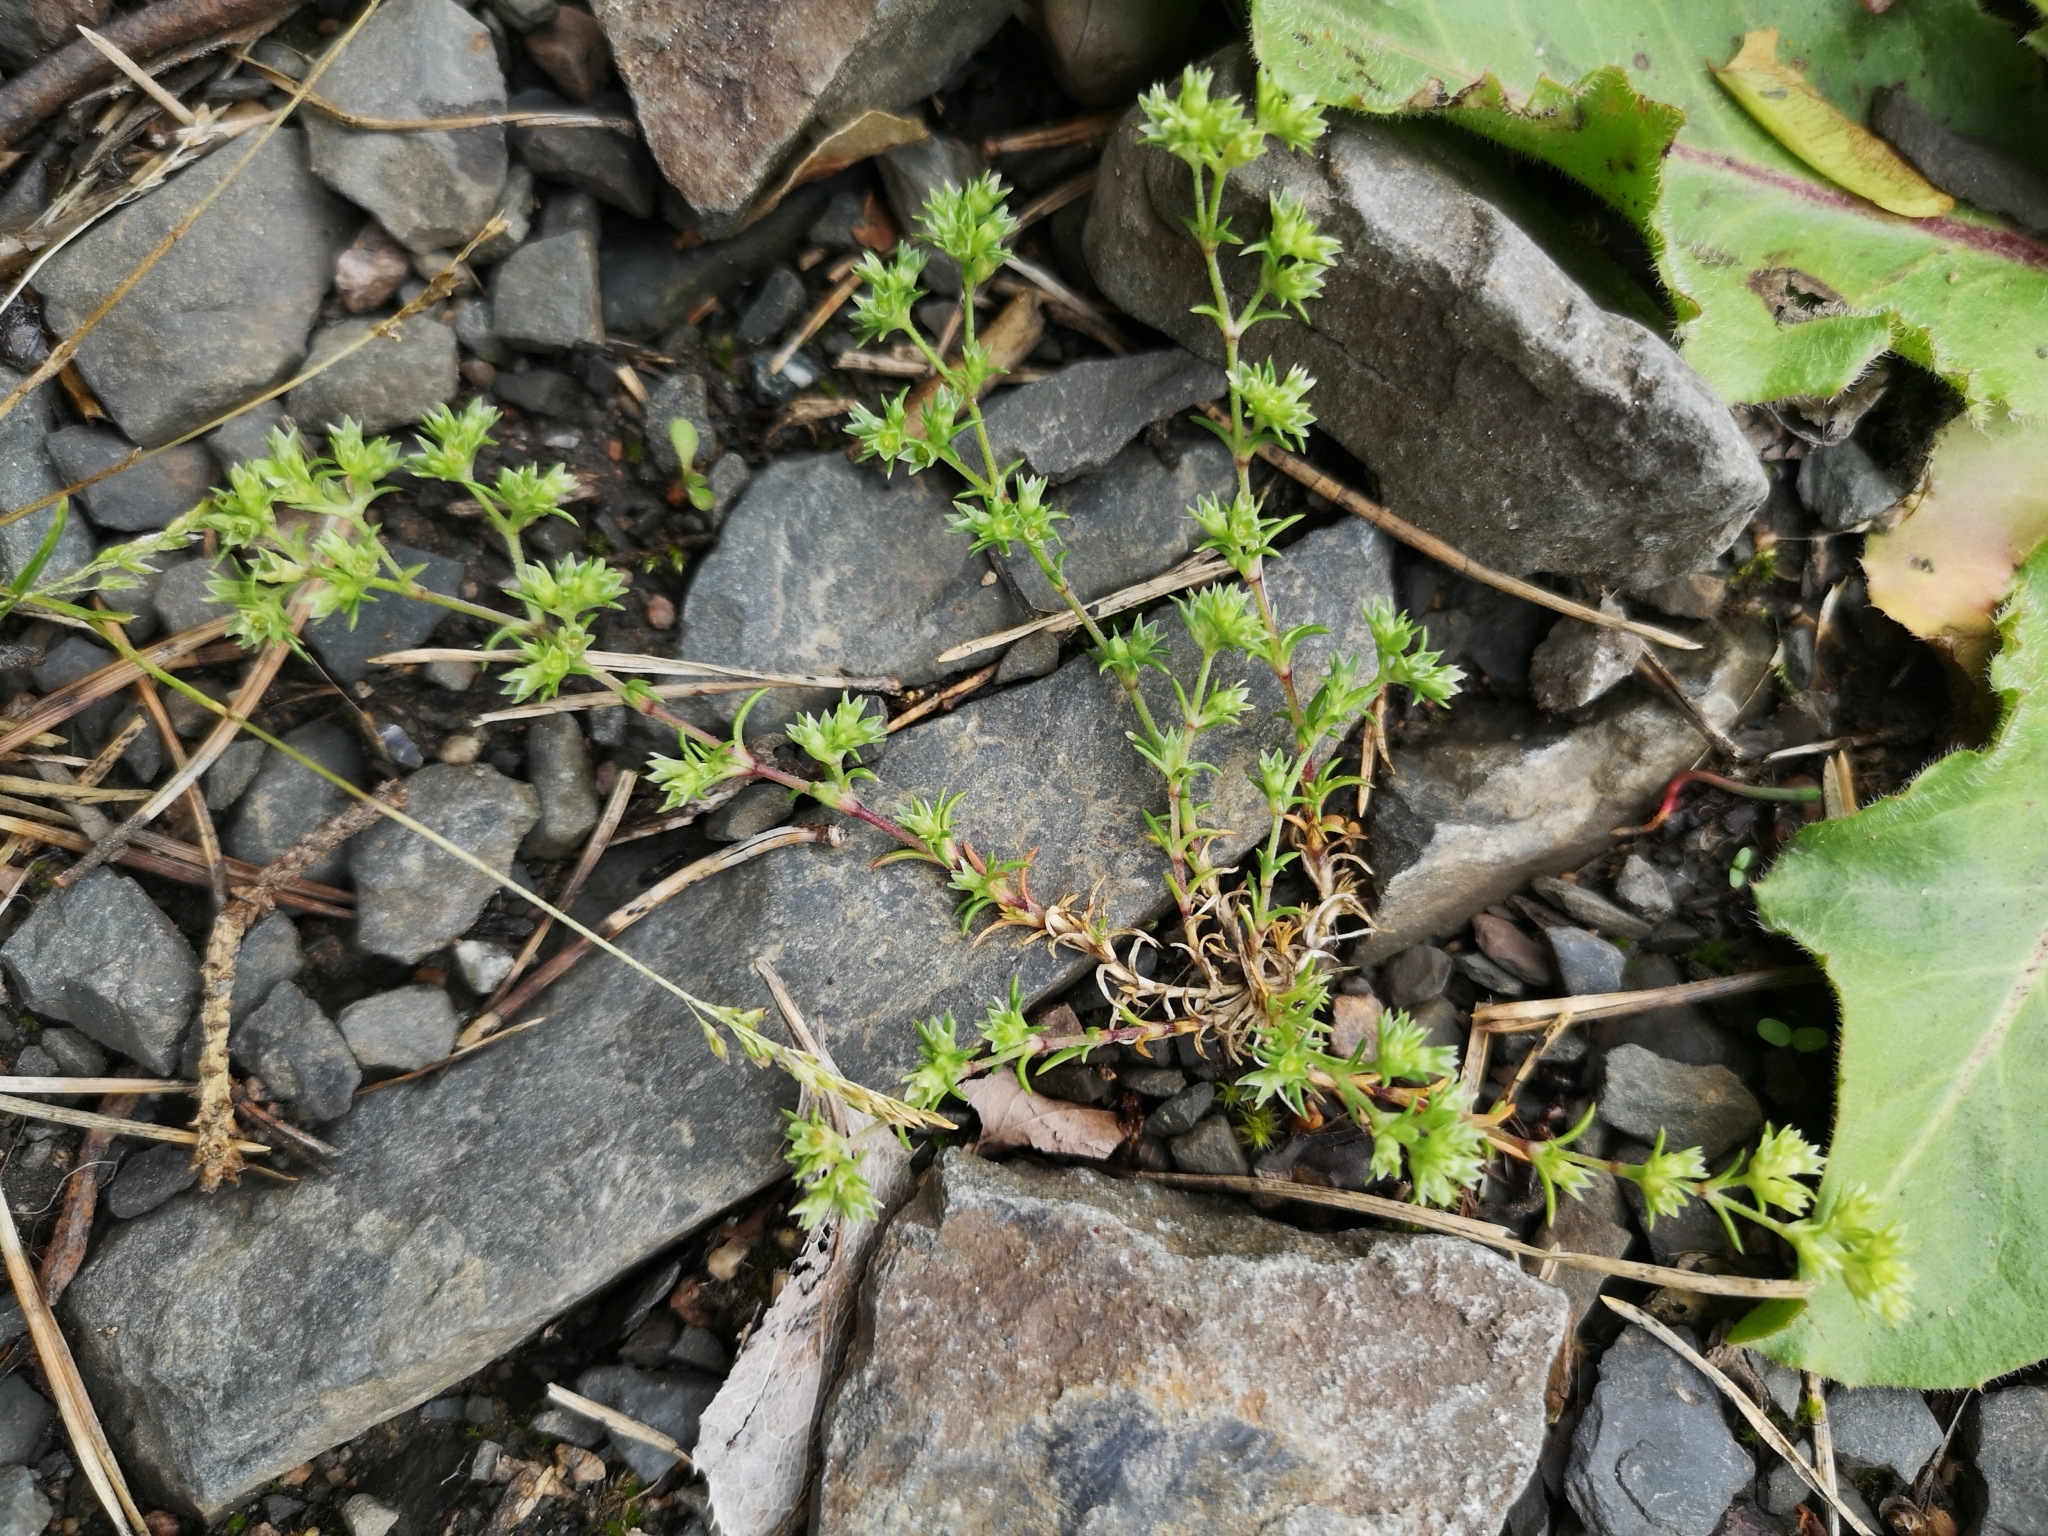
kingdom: Plantae
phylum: Tracheophyta
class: Magnoliopsida
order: Caryophyllales
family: Caryophyllaceae
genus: Scleranthus
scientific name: Scleranthus annuus
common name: Annual knawel
